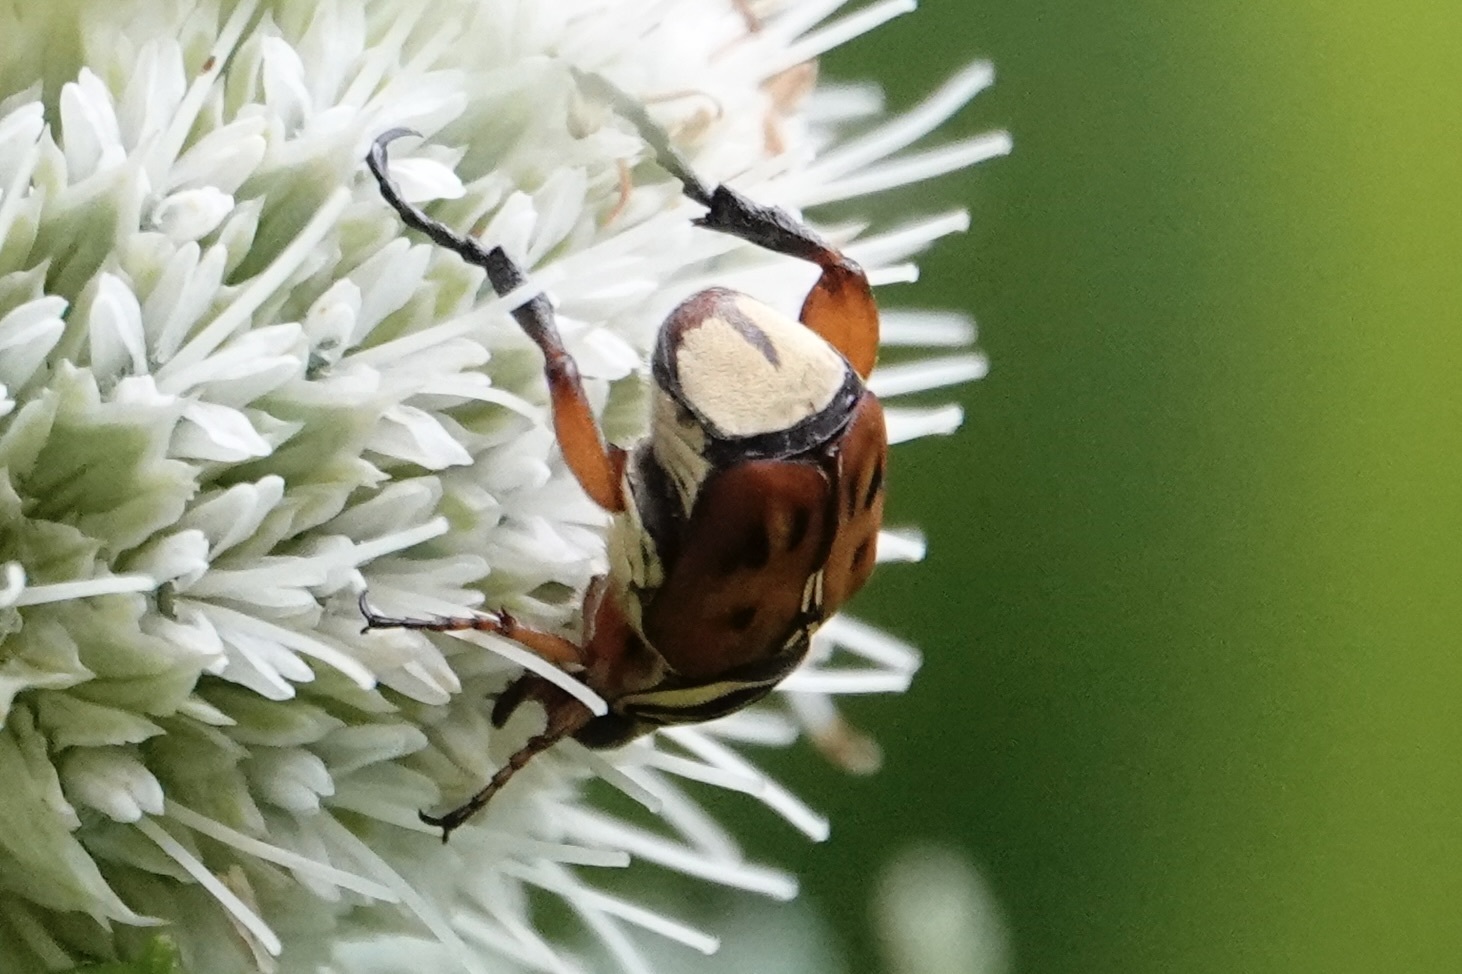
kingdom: Animalia
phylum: Arthropoda
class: Insecta
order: Coleoptera
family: Scarabaeidae
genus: Trigonopeltastes
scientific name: Trigonopeltastes delta
